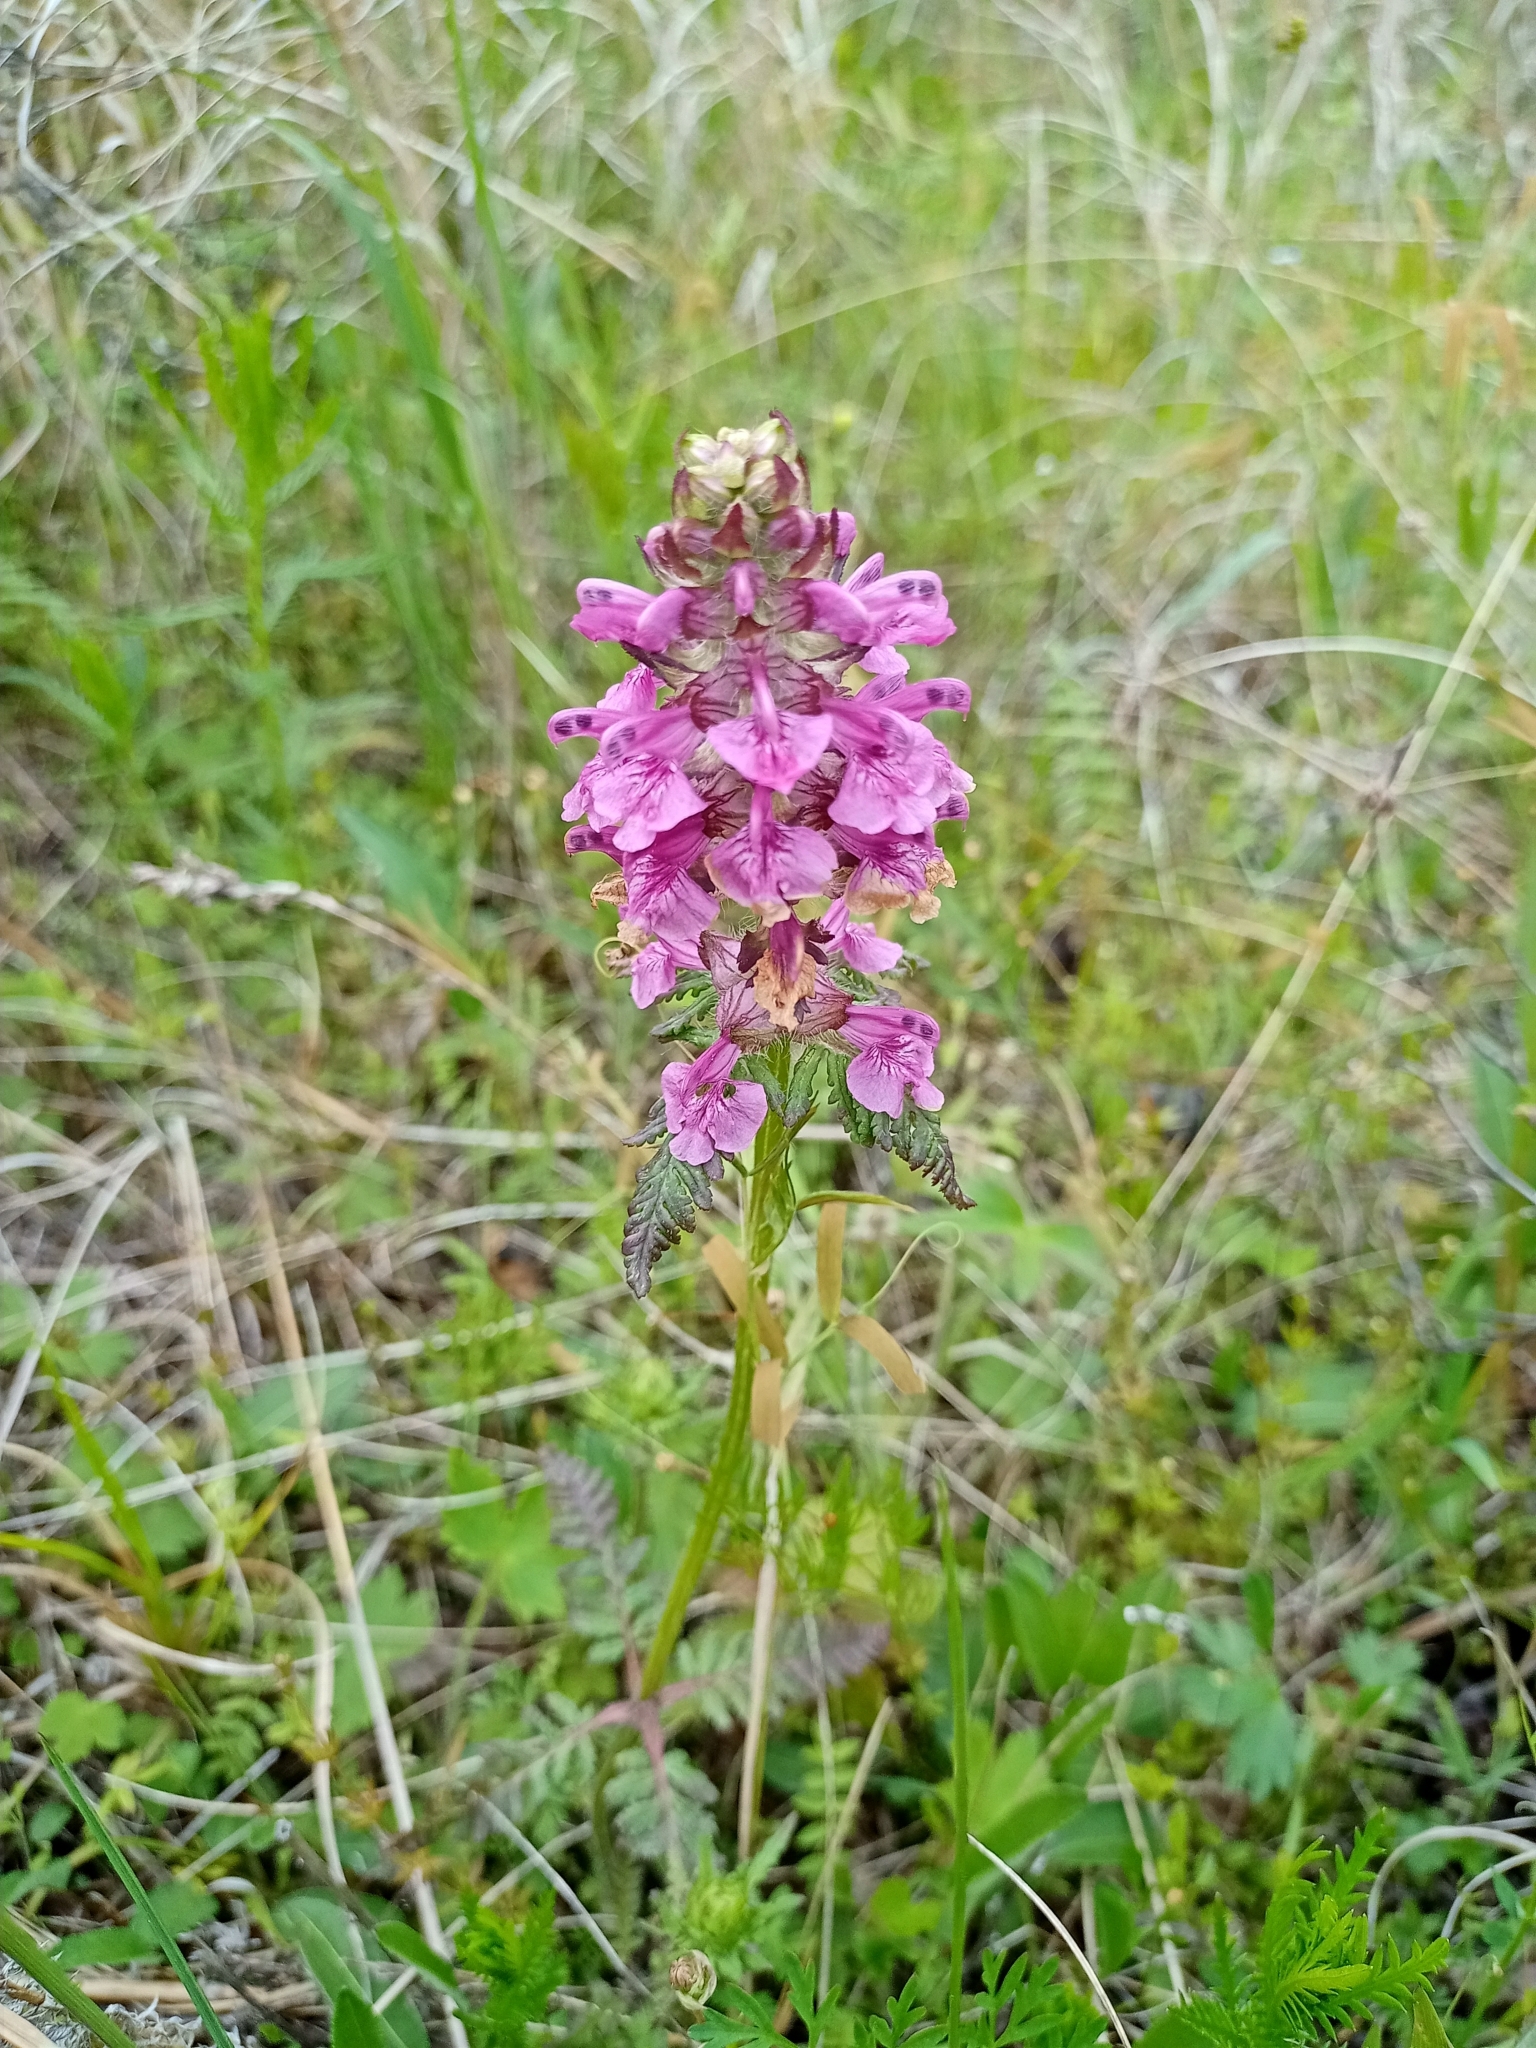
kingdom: Plantae
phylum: Tracheophyta
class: Magnoliopsida
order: Lamiales
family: Orobanchaceae
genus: Pedicularis
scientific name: Pedicularis verticillata
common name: Whorled lousewort
